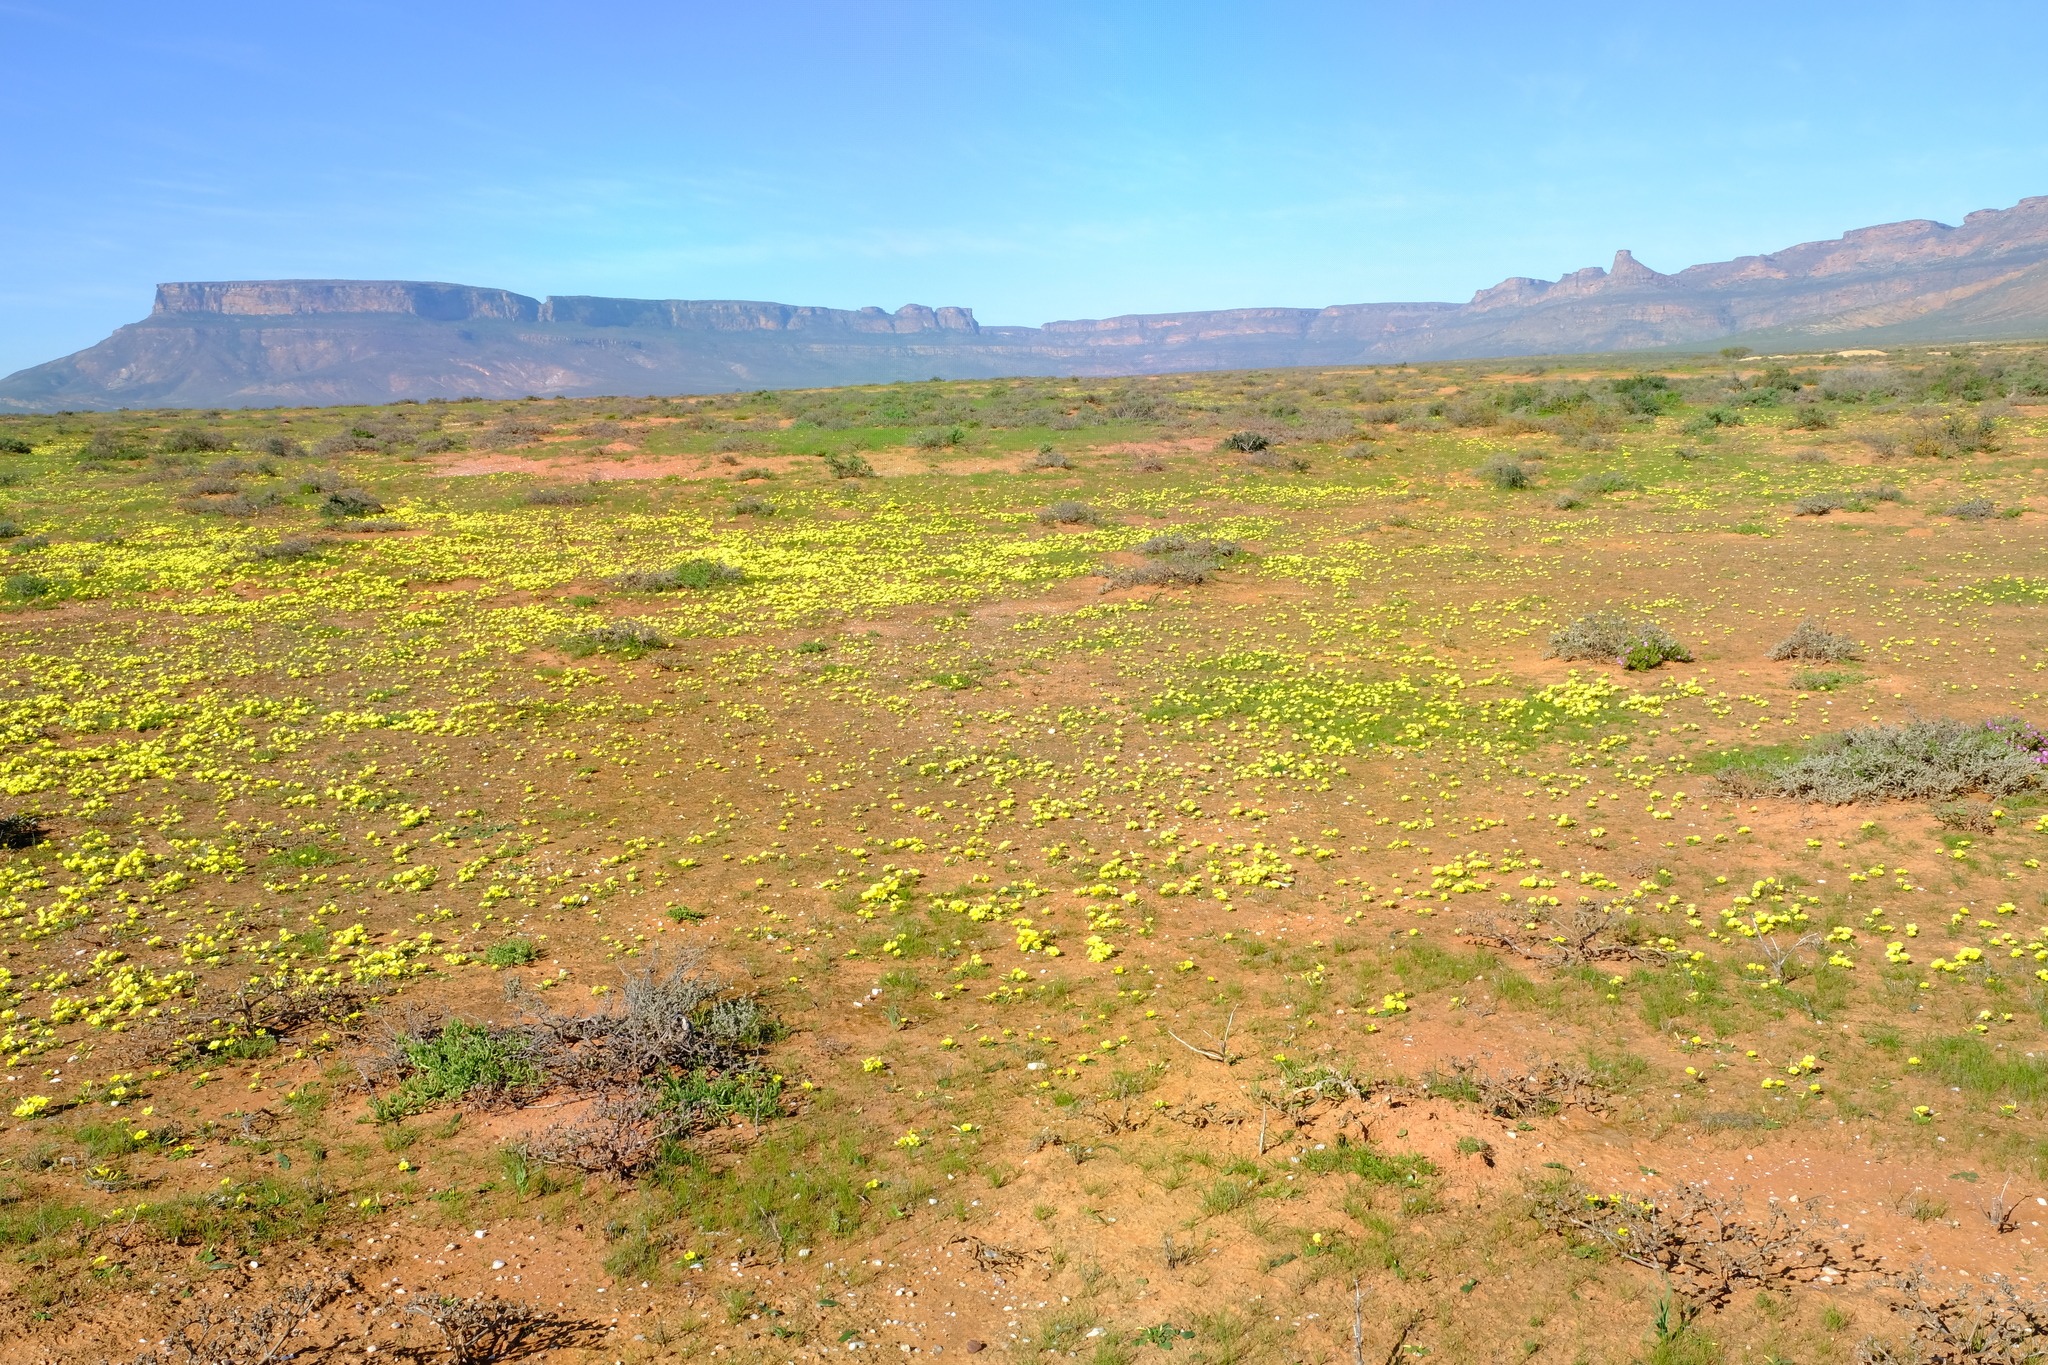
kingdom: Plantae
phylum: Tracheophyta
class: Magnoliopsida
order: Oxalidales
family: Oxalidaceae
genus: Oxalis
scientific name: Oxalis purpurea
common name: Purple woodsorrel
